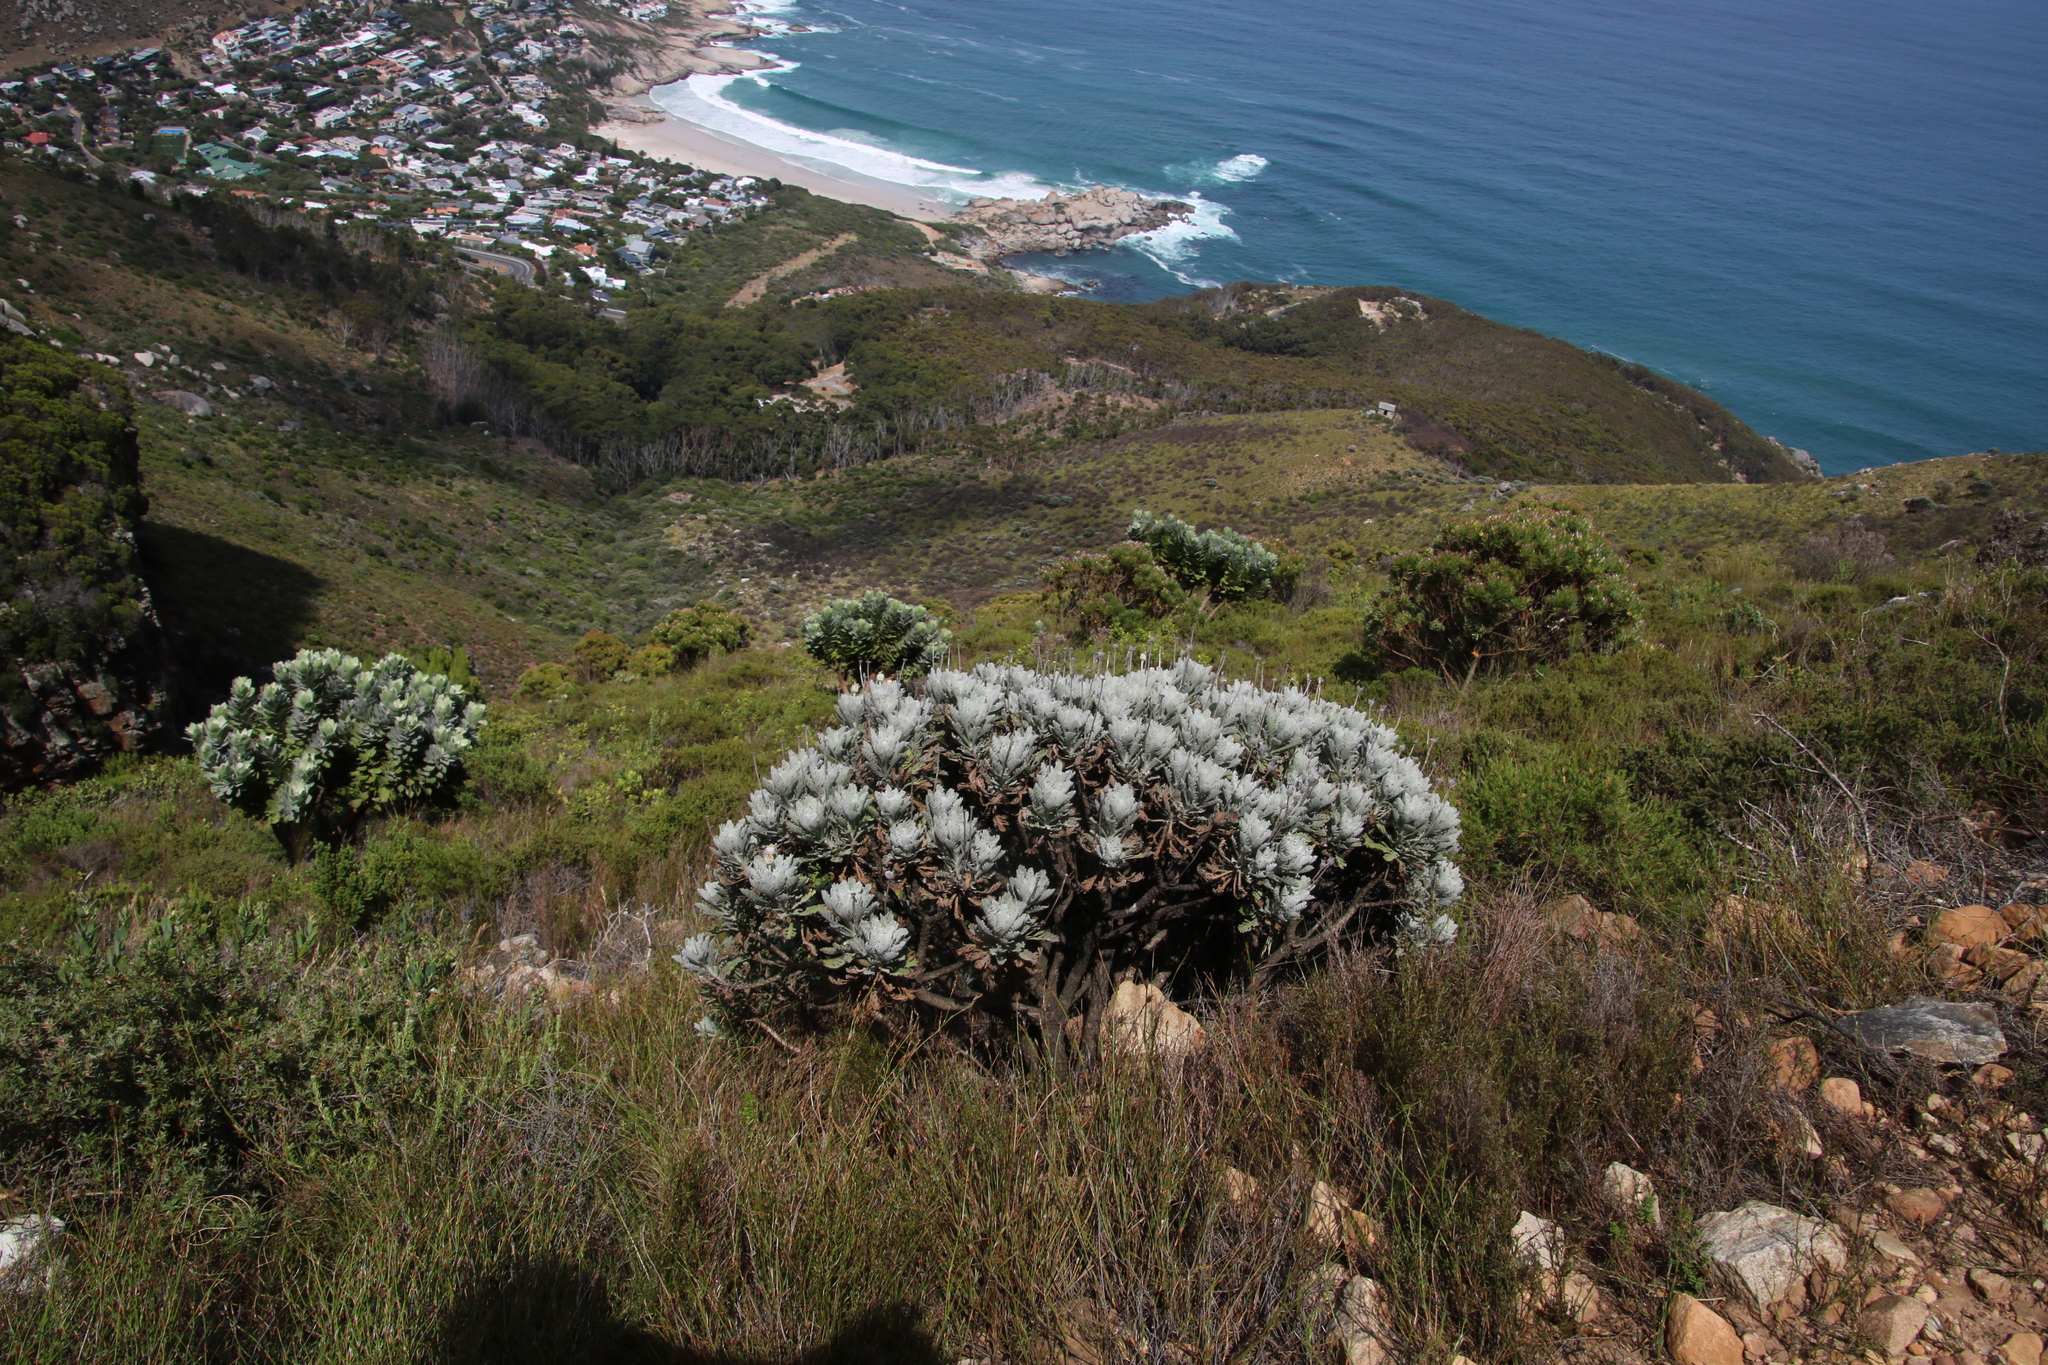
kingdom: Plantae
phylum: Tracheophyta
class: Magnoliopsida
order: Asterales
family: Asteraceae
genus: Euryops
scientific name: Euryops pectinatus
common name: Gray-leaf euryops
